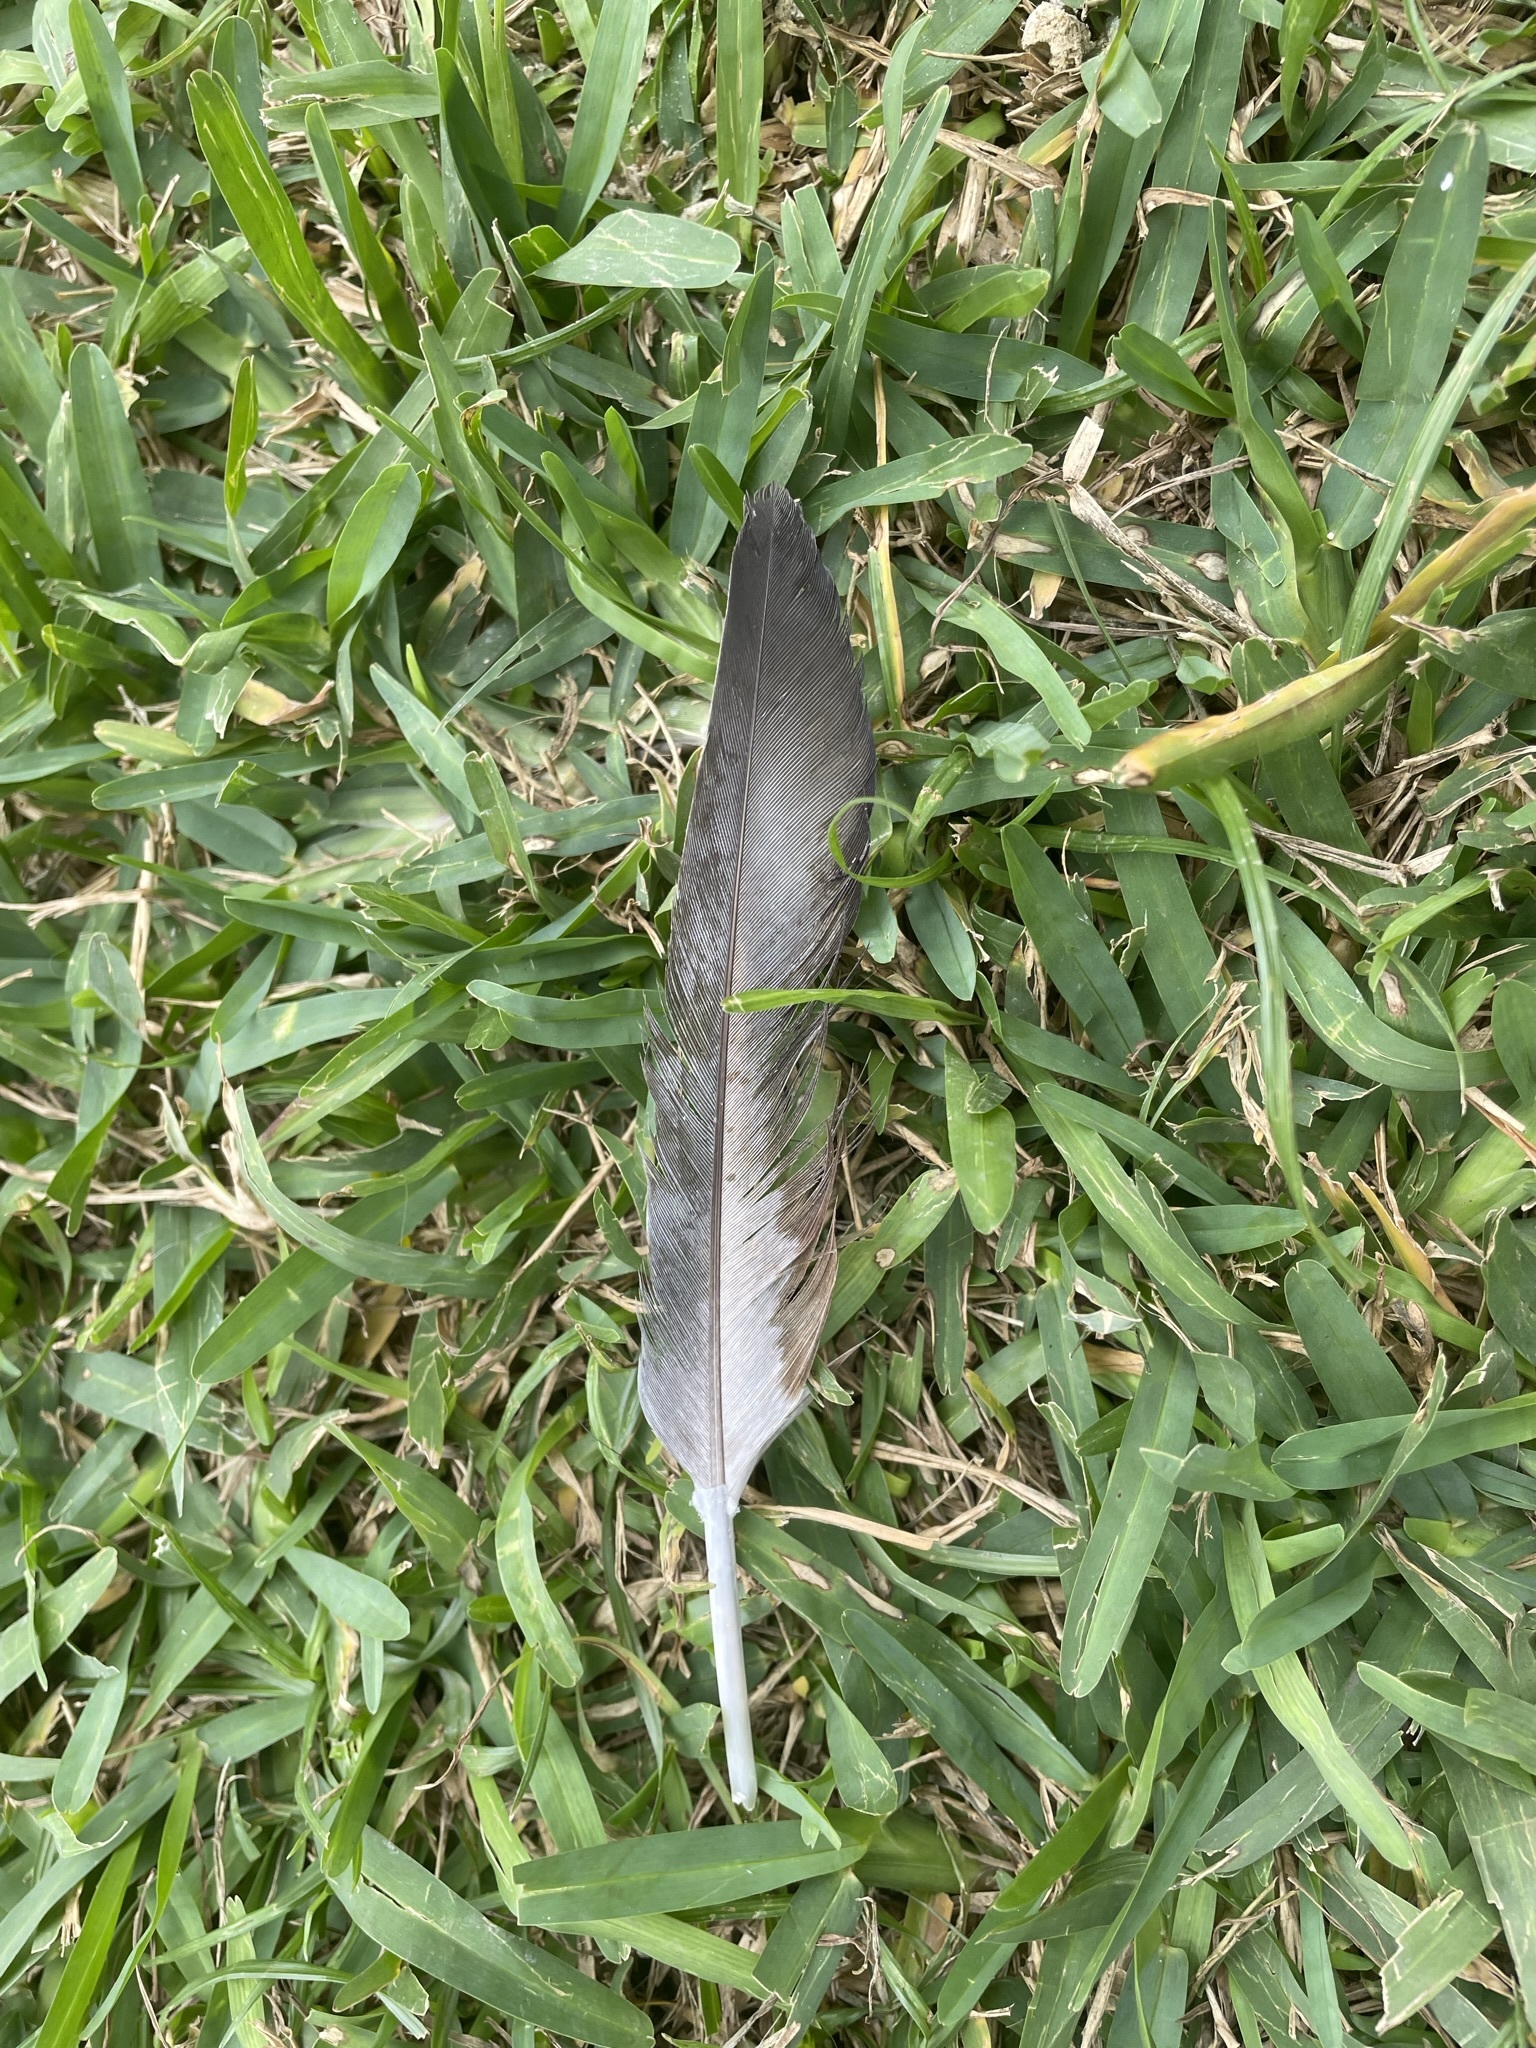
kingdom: Animalia
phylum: Chordata
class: Aves
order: Columbiformes
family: Columbidae
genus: Columba
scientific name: Columba livia
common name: Rock pigeon
